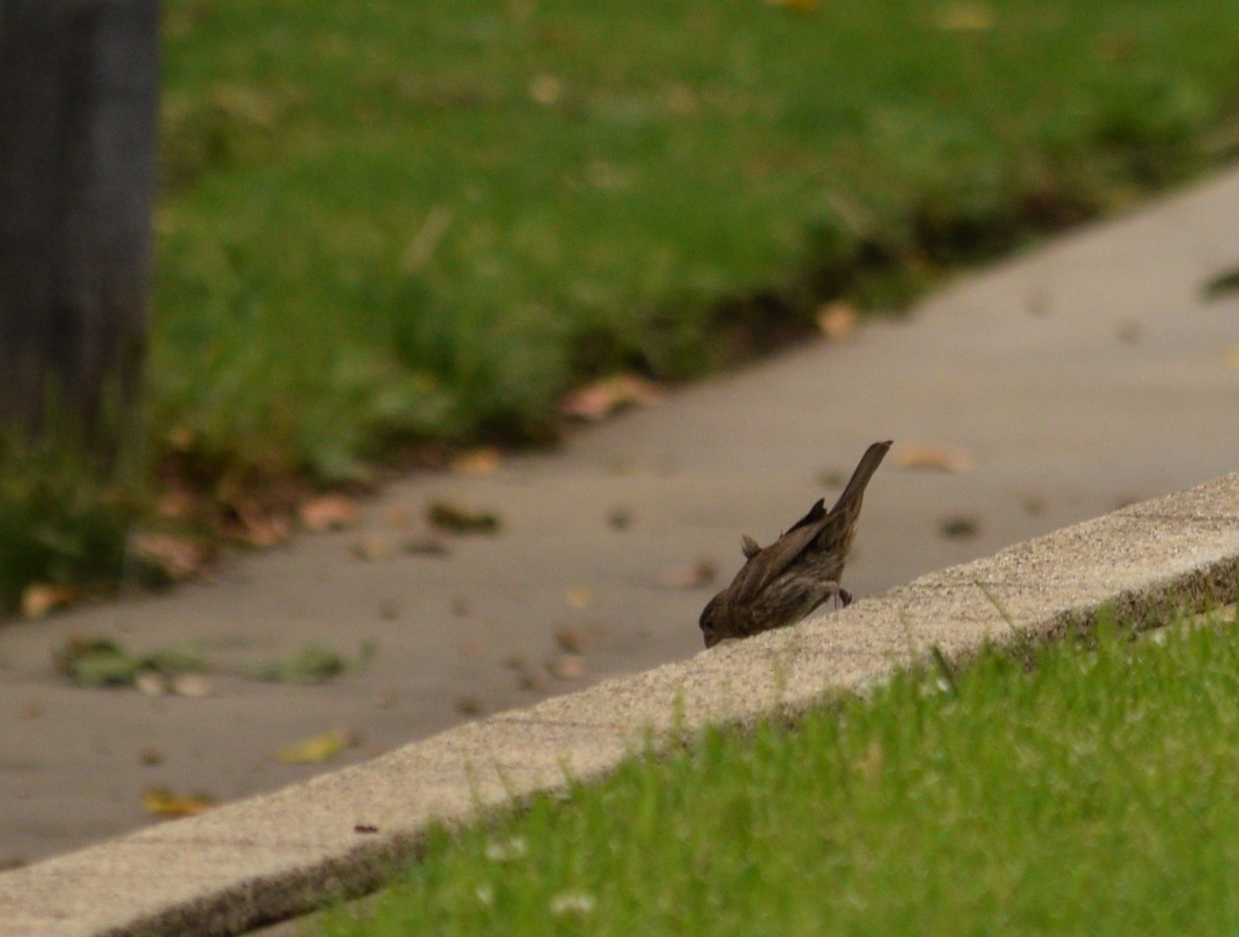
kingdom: Animalia
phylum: Chordata
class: Aves
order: Passeriformes
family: Fringillidae
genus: Haemorhous
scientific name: Haemorhous mexicanus
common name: House finch
